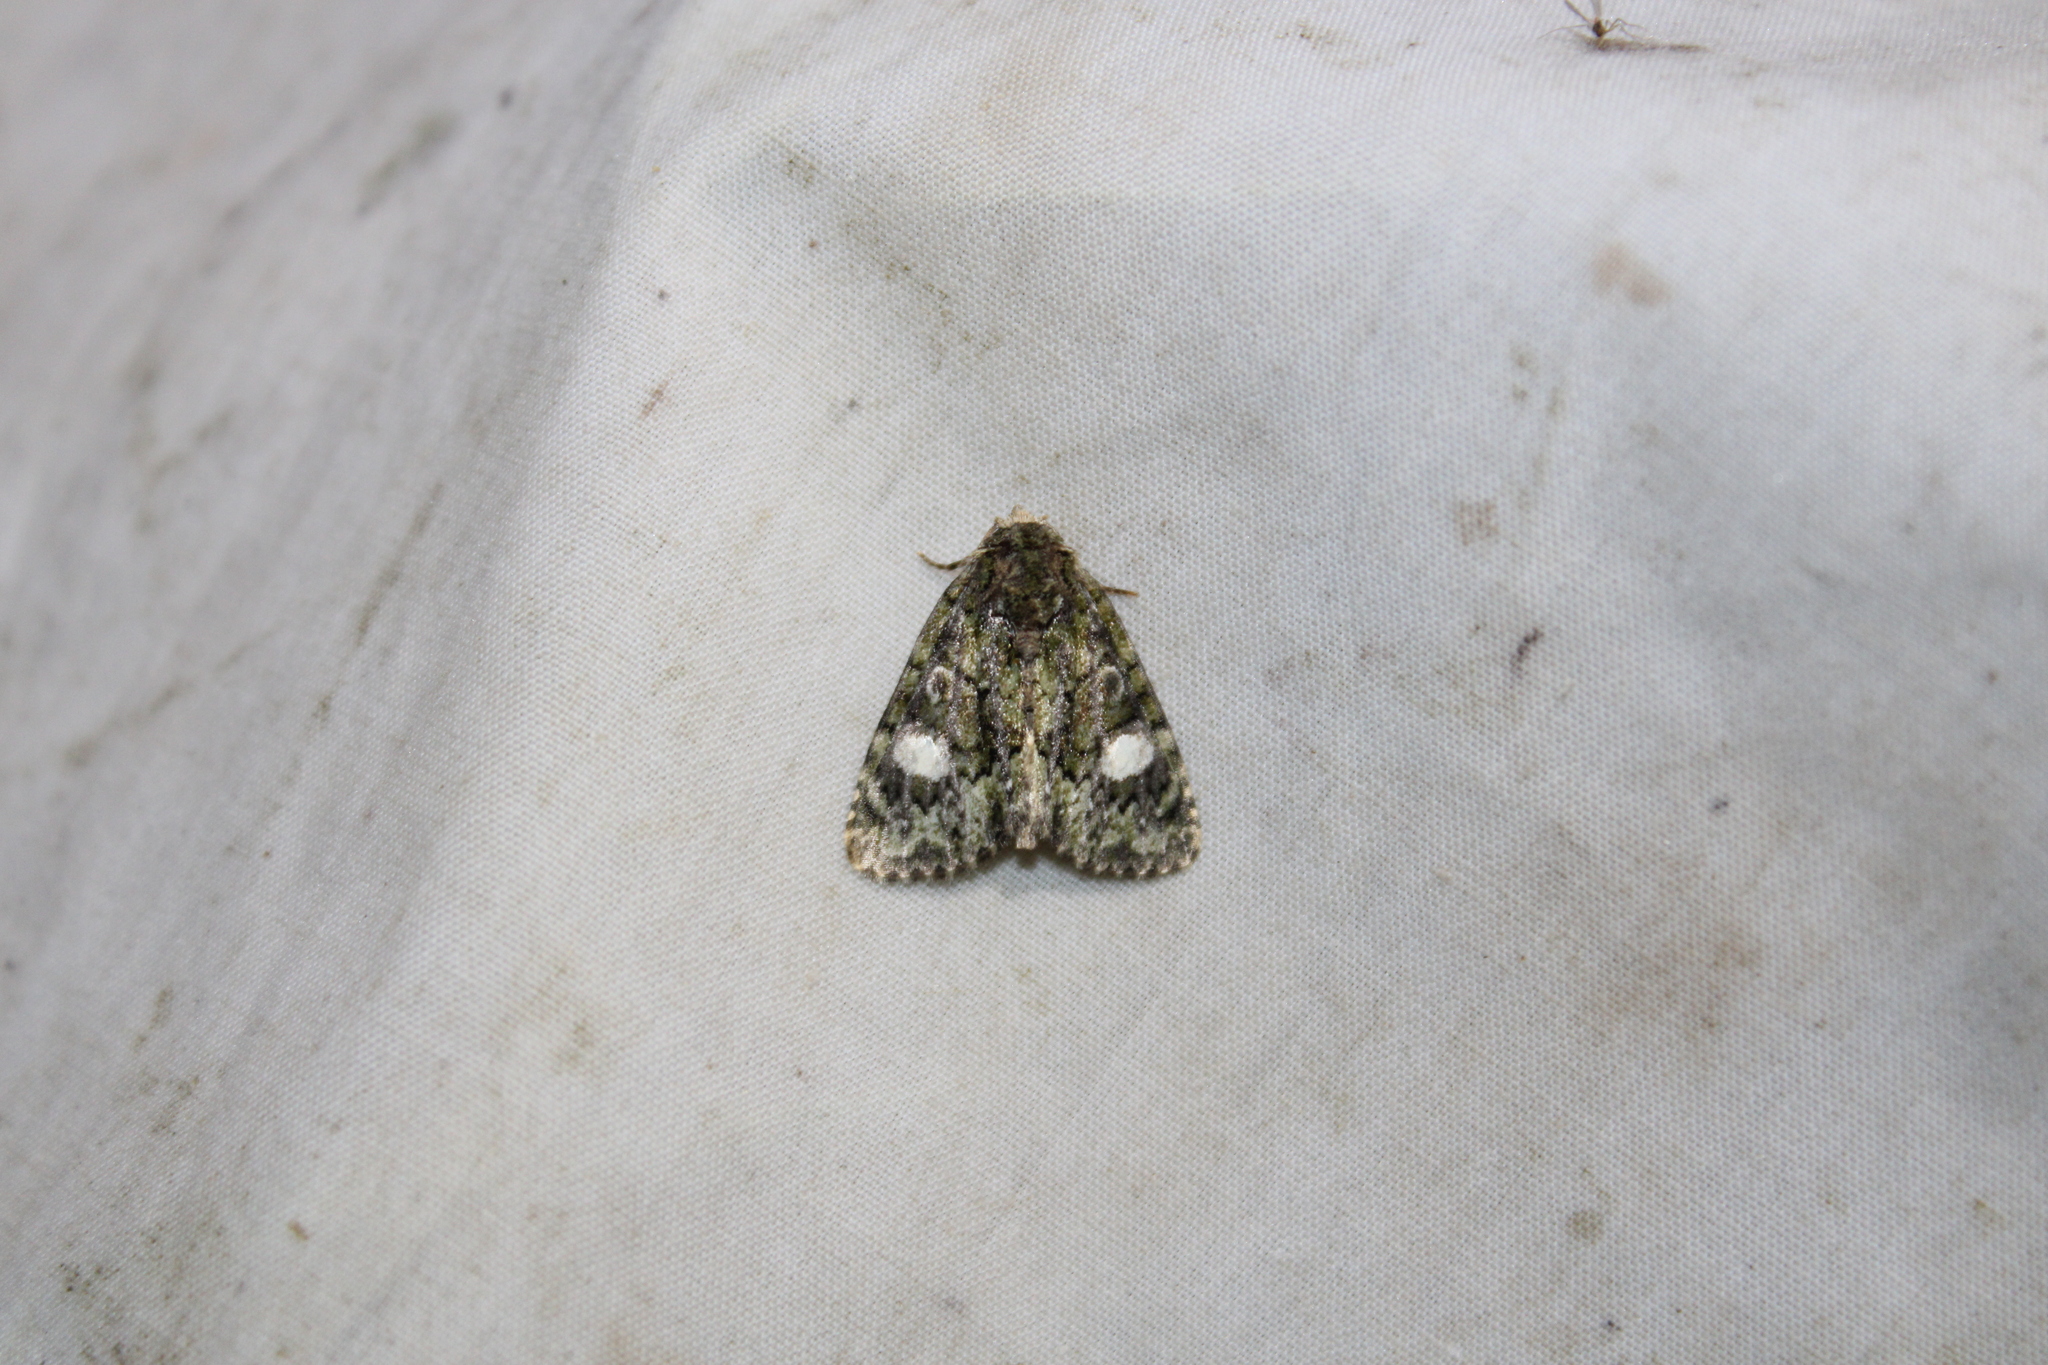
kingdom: Animalia
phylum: Arthropoda
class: Insecta
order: Lepidoptera
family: Noctuidae
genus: Phosphila
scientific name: Phosphila miselioides
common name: Spotted phosphila moth
